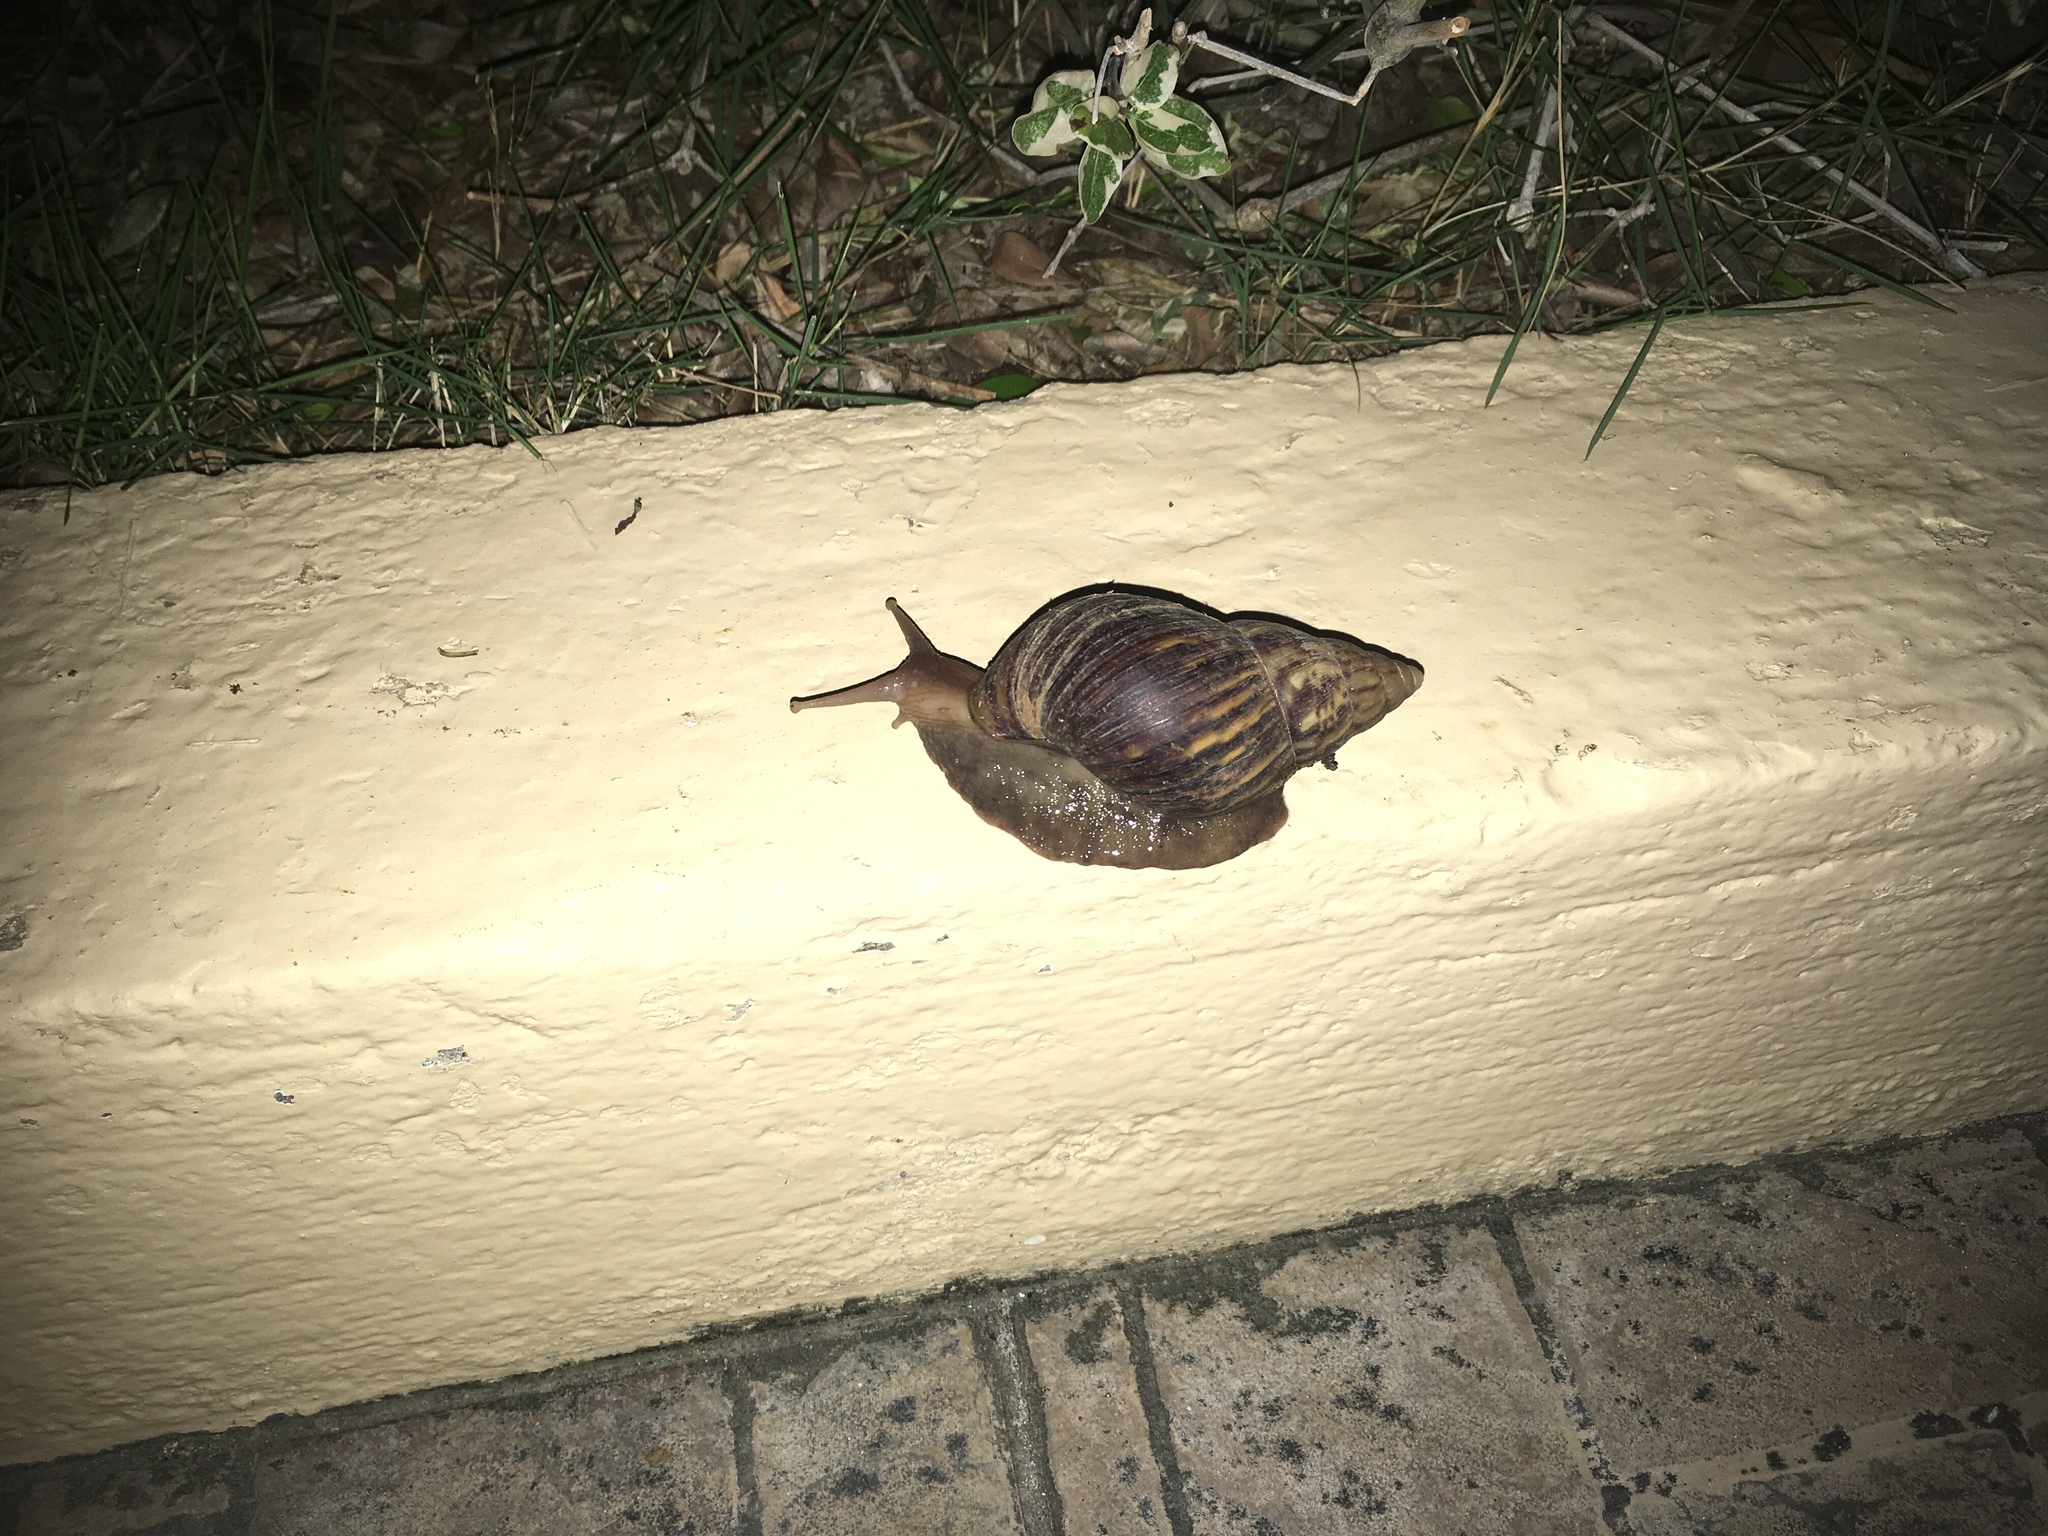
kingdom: Animalia
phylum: Mollusca
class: Gastropoda
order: Stylommatophora
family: Achatinidae
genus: Lissachatina
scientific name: Lissachatina fulica
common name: Giant african snail
